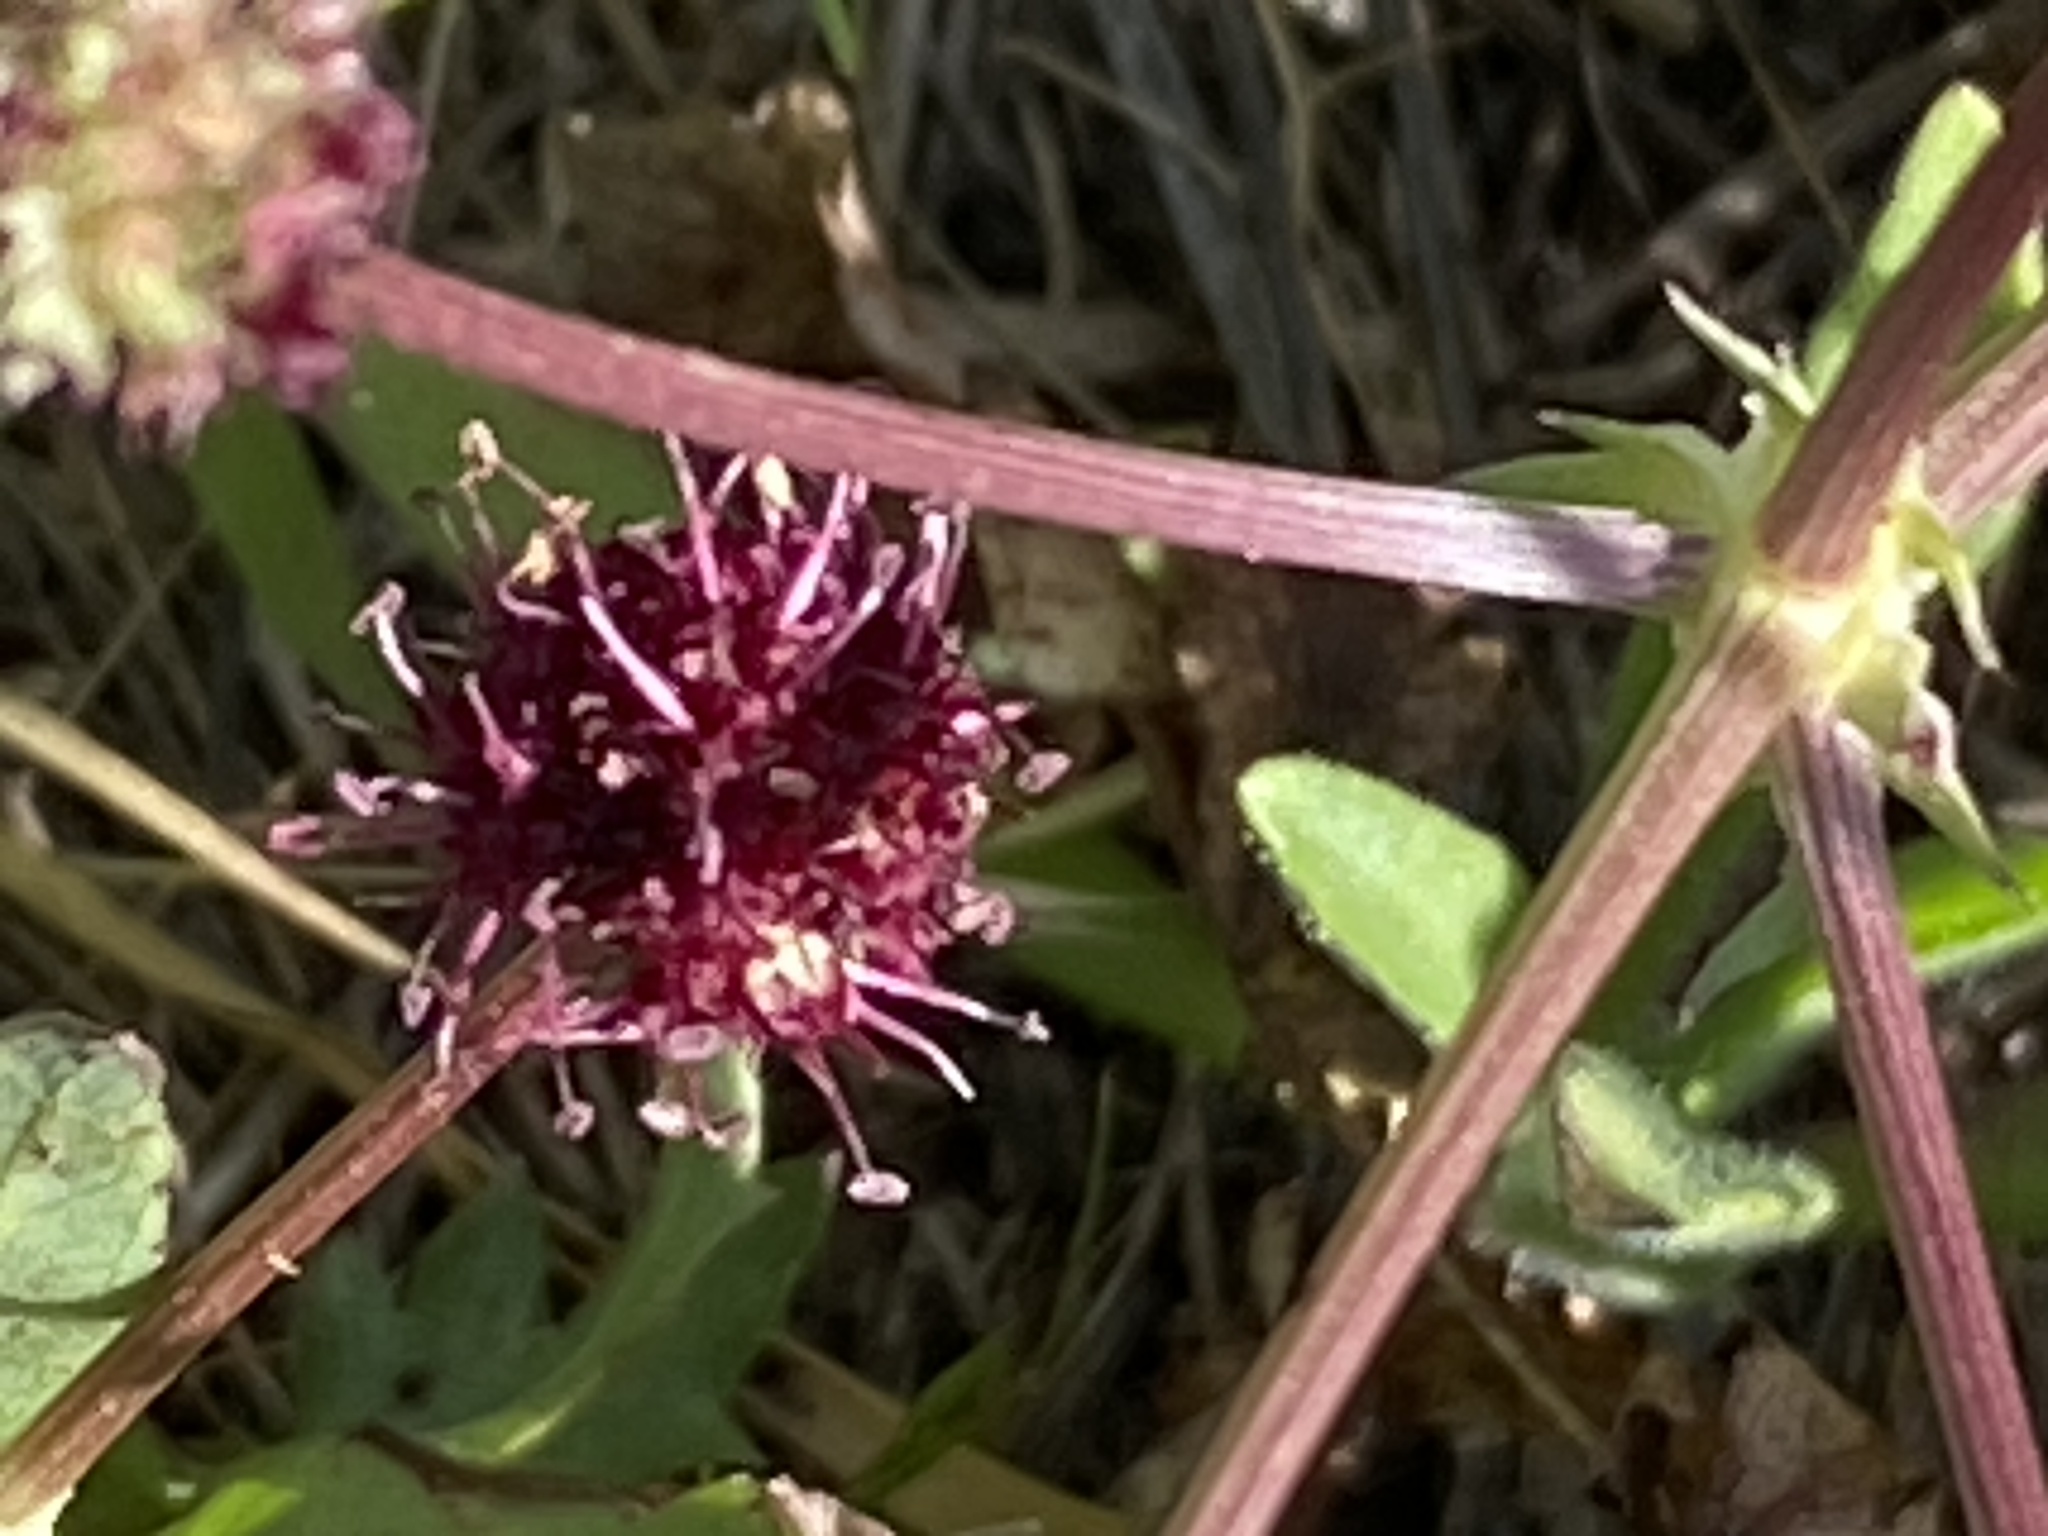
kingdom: Plantae
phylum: Tracheophyta
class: Magnoliopsida
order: Apiales
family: Apiaceae
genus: Sanicula
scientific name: Sanicula bipinnatifida
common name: Shoe-buttons
